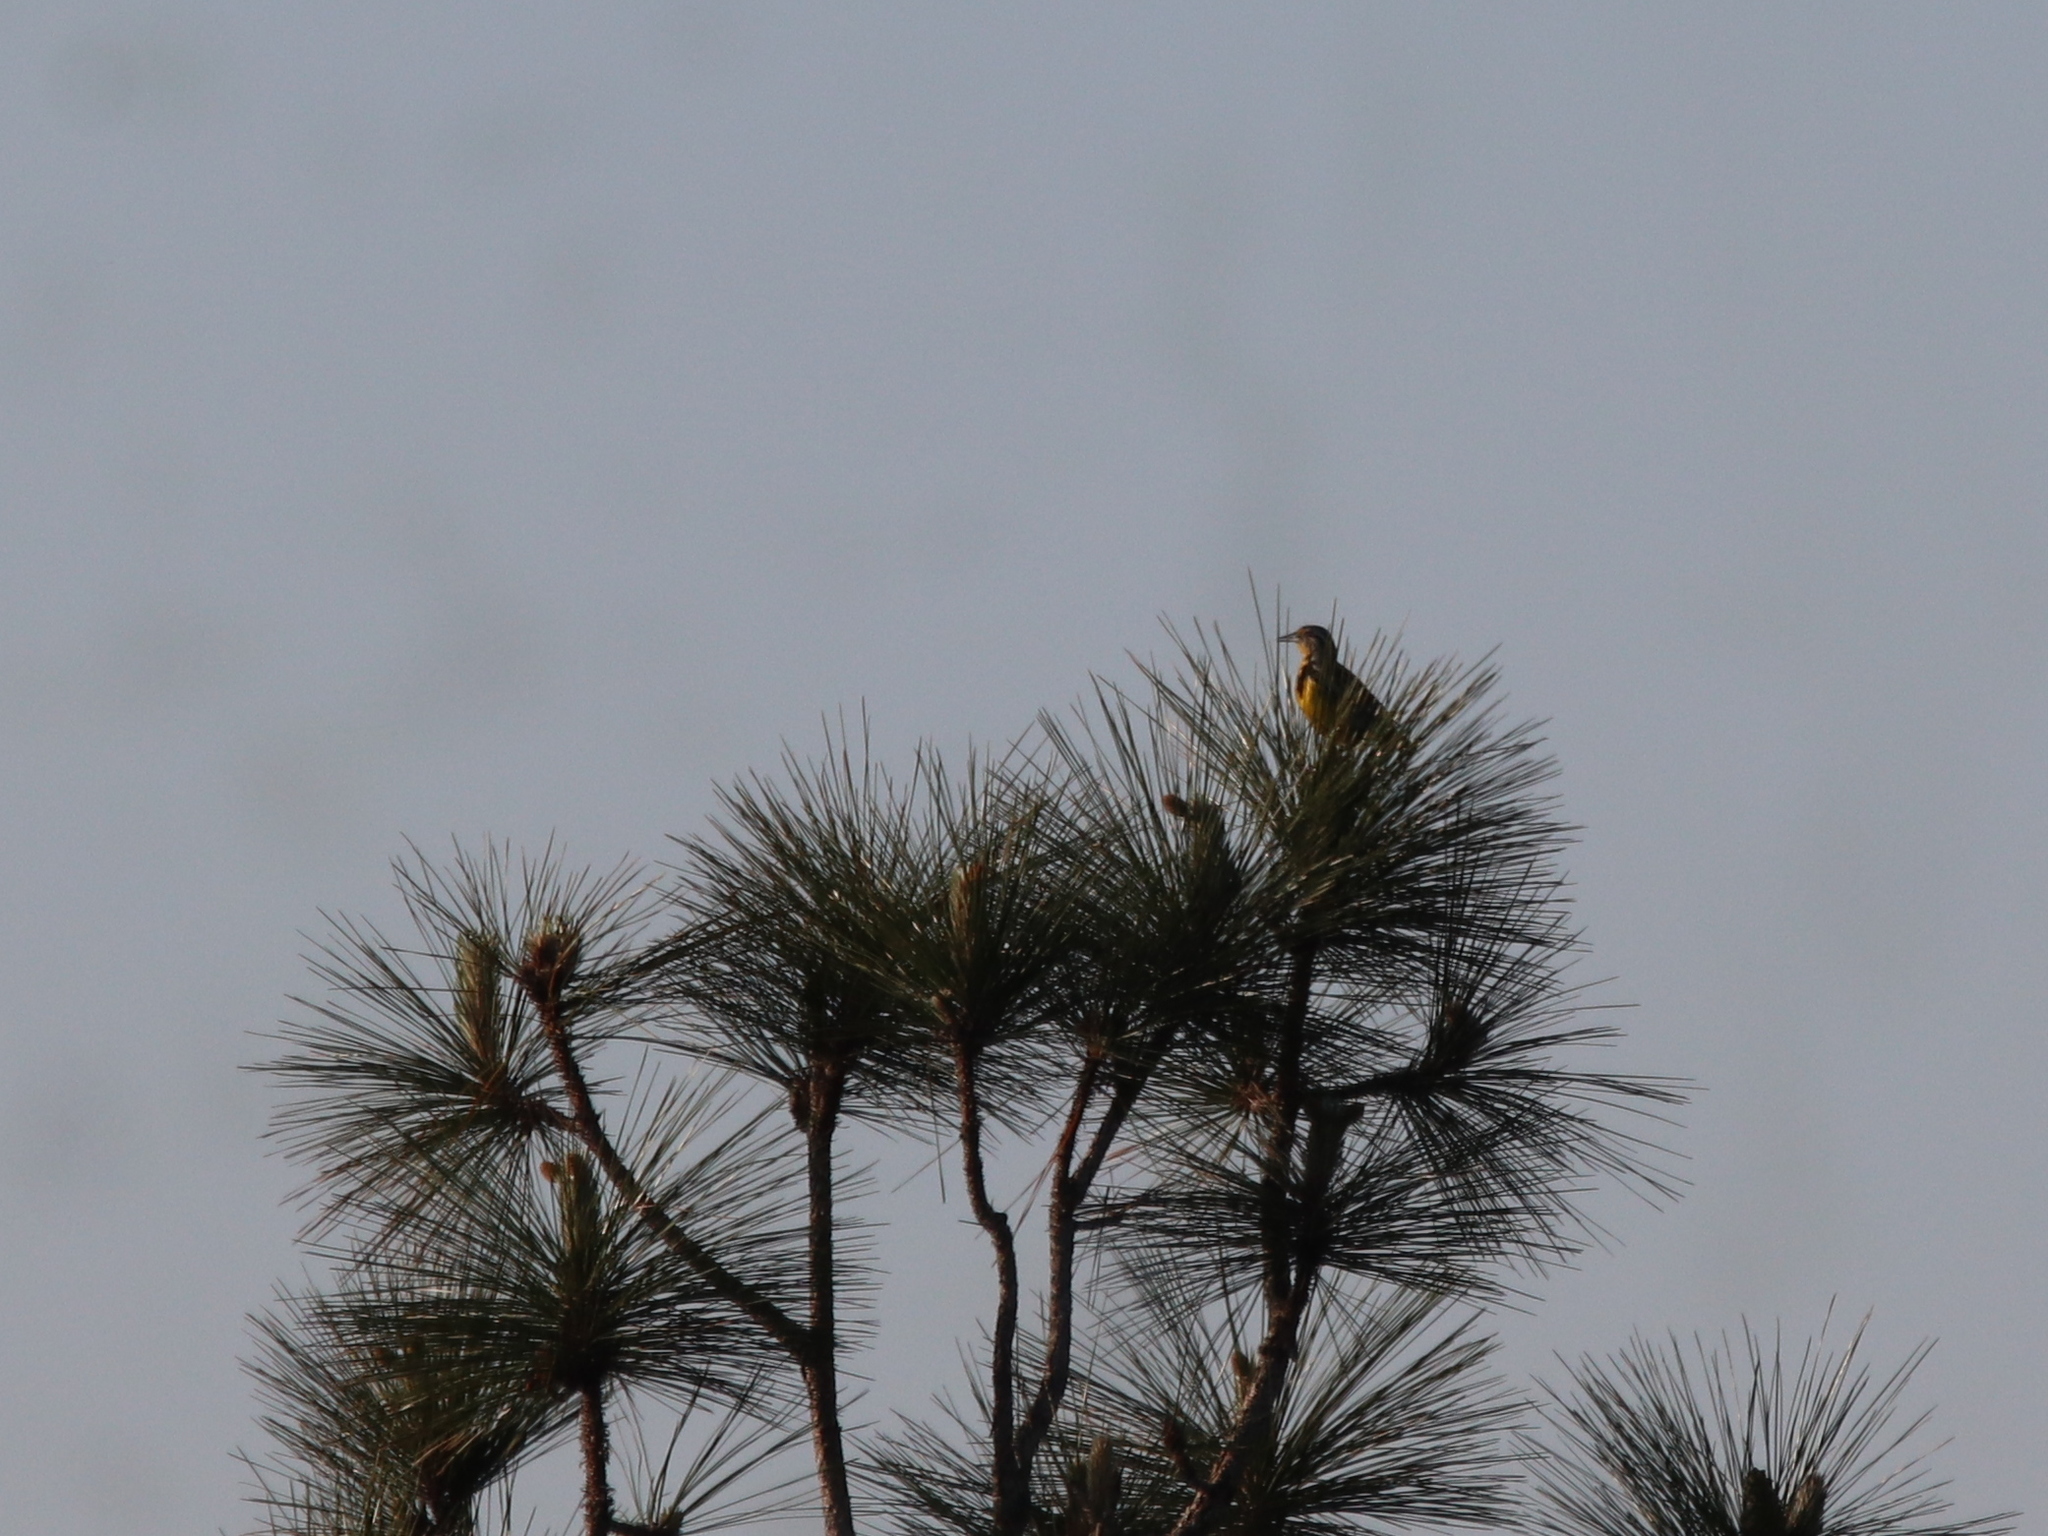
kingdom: Animalia
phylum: Chordata
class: Aves
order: Passeriformes
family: Icteridae
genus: Sturnella
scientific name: Sturnella magna
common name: Eastern meadowlark
